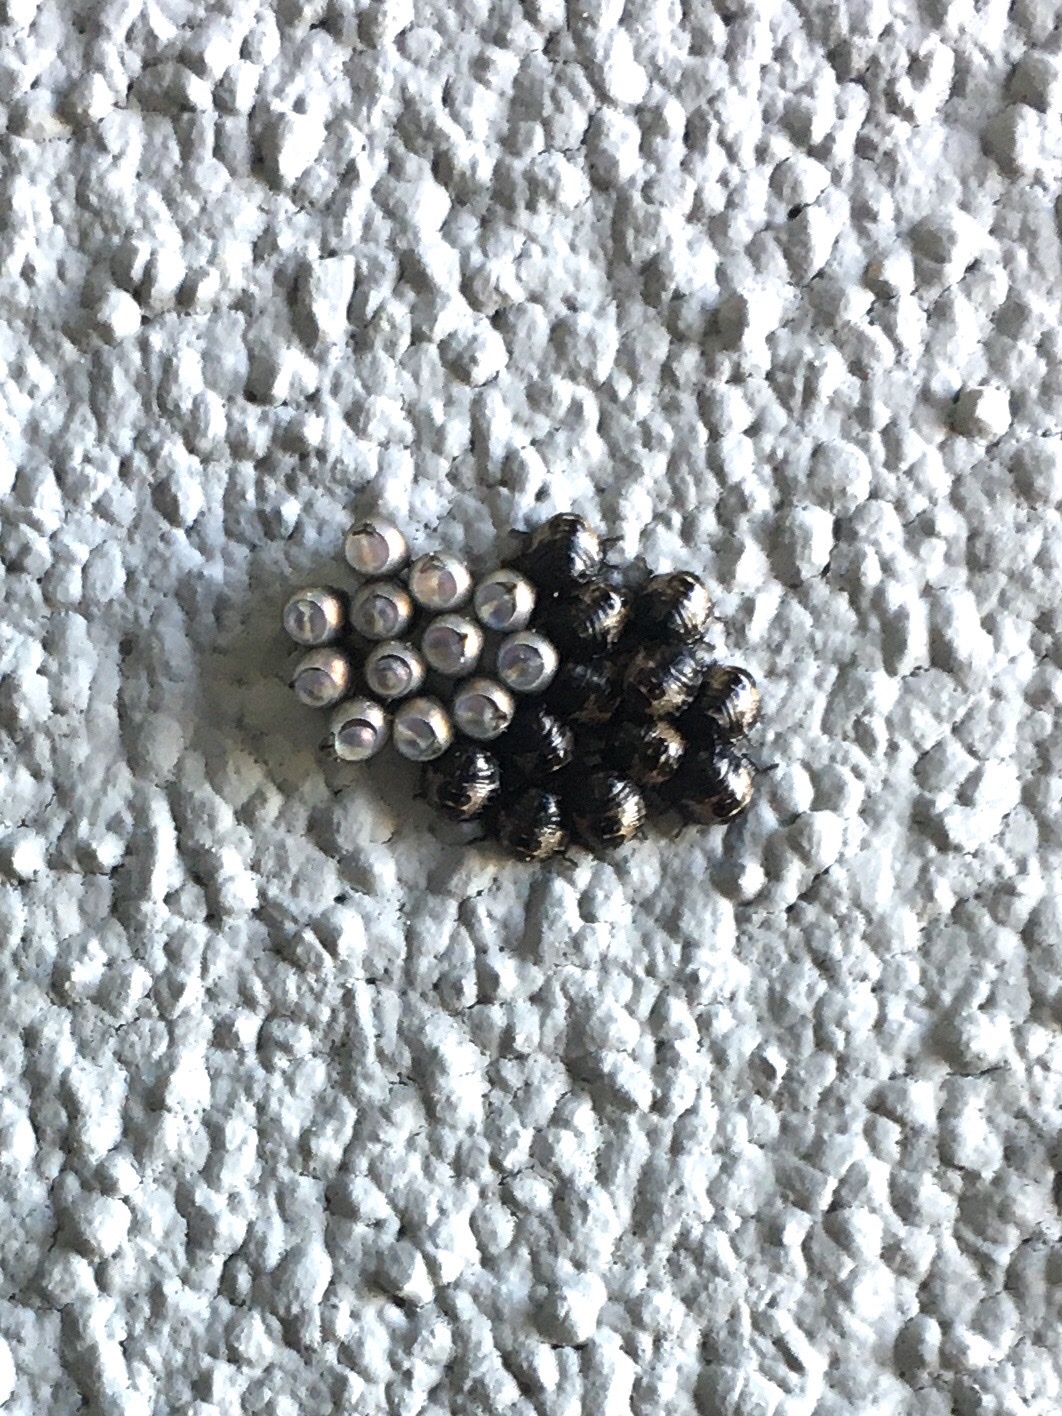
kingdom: Animalia
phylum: Arthropoda
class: Insecta
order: Hemiptera
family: Pentatomidae
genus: Rhaphigaster
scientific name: Rhaphigaster nebulosa
